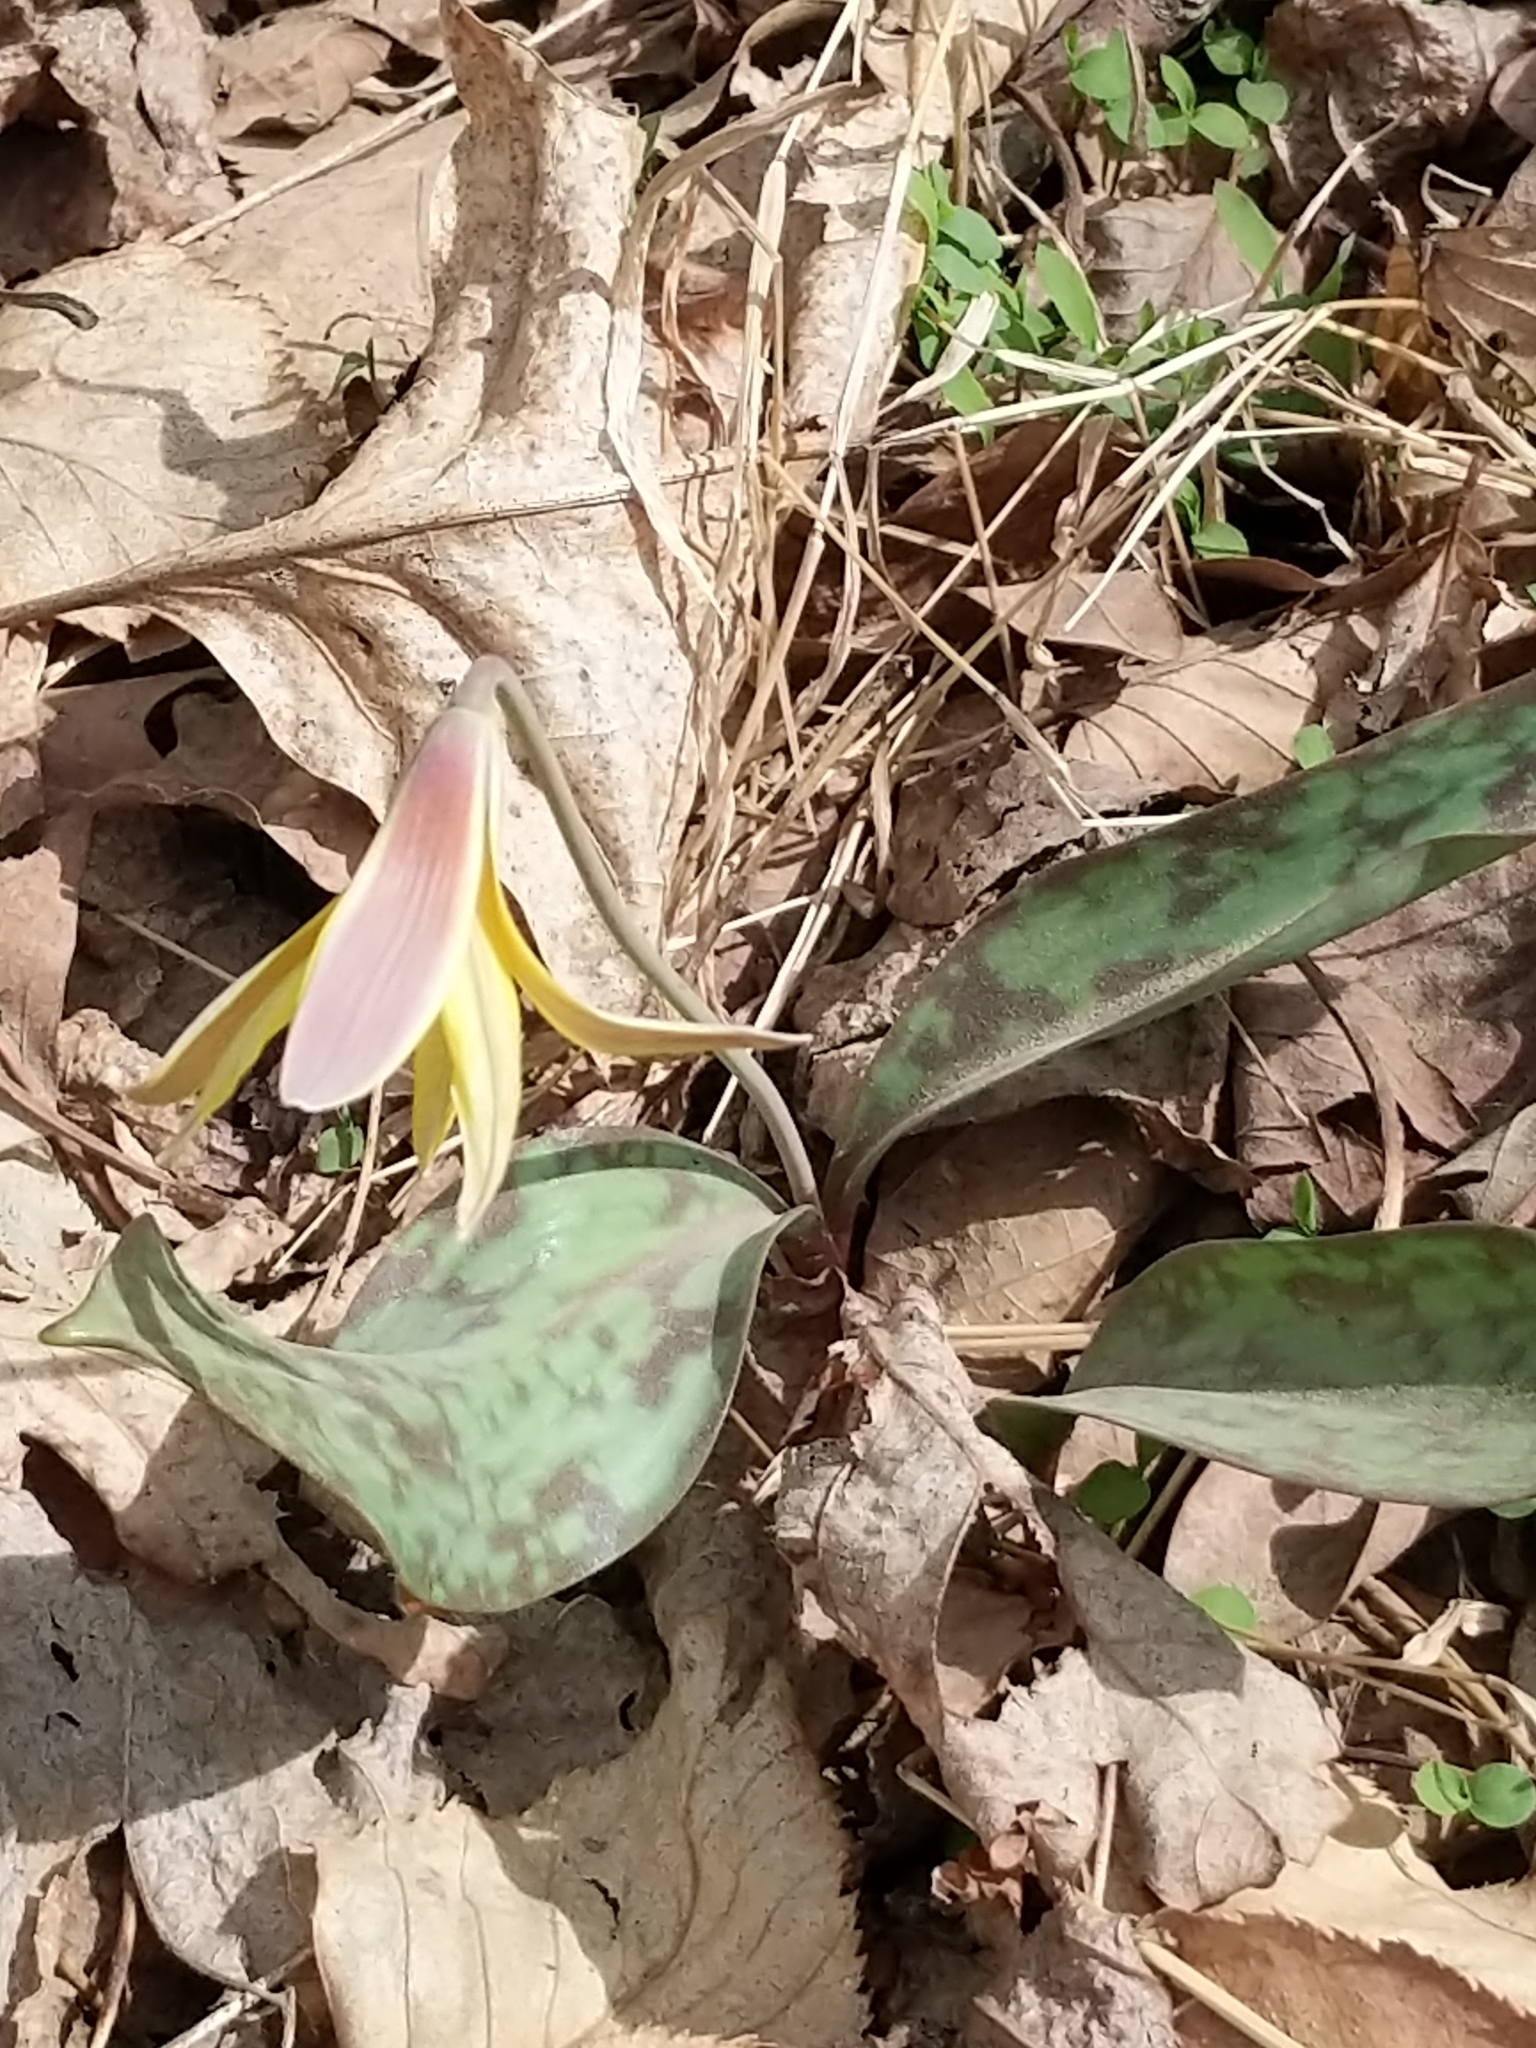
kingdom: Plantae
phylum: Tracheophyta
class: Liliopsida
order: Liliales
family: Liliaceae
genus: Erythronium
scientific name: Erythronium americanum
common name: Yellow adder's-tongue
